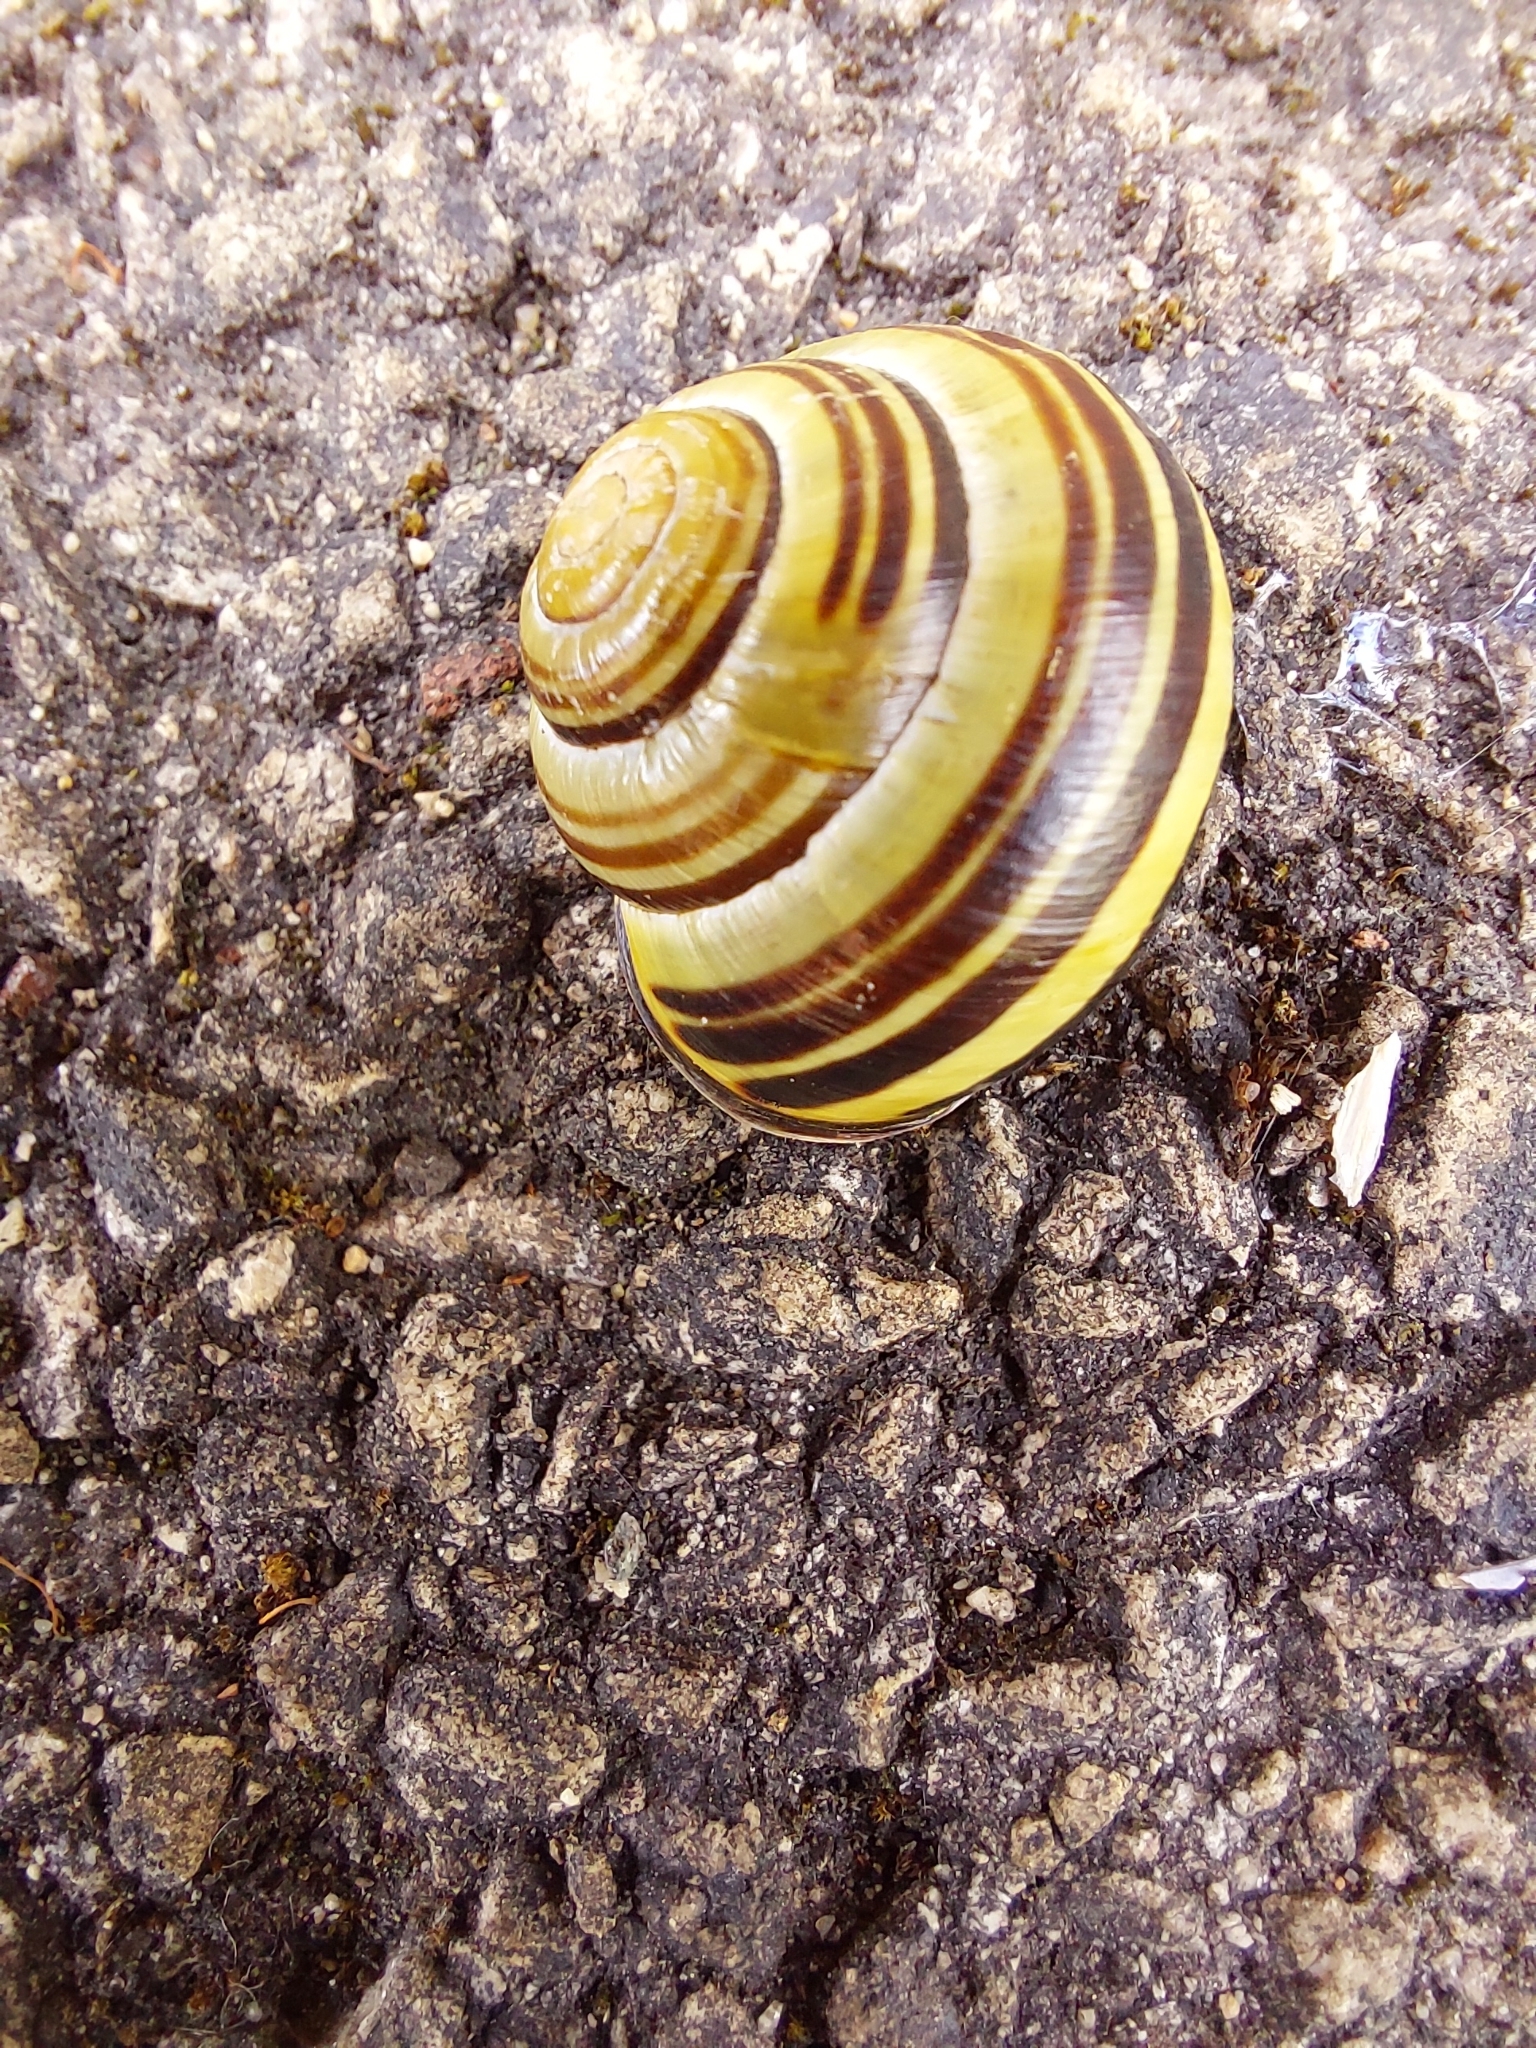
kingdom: Animalia
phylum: Mollusca
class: Gastropoda
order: Stylommatophora
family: Helicidae
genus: Cepaea
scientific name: Cepaea nemoralis
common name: Grovesnail
